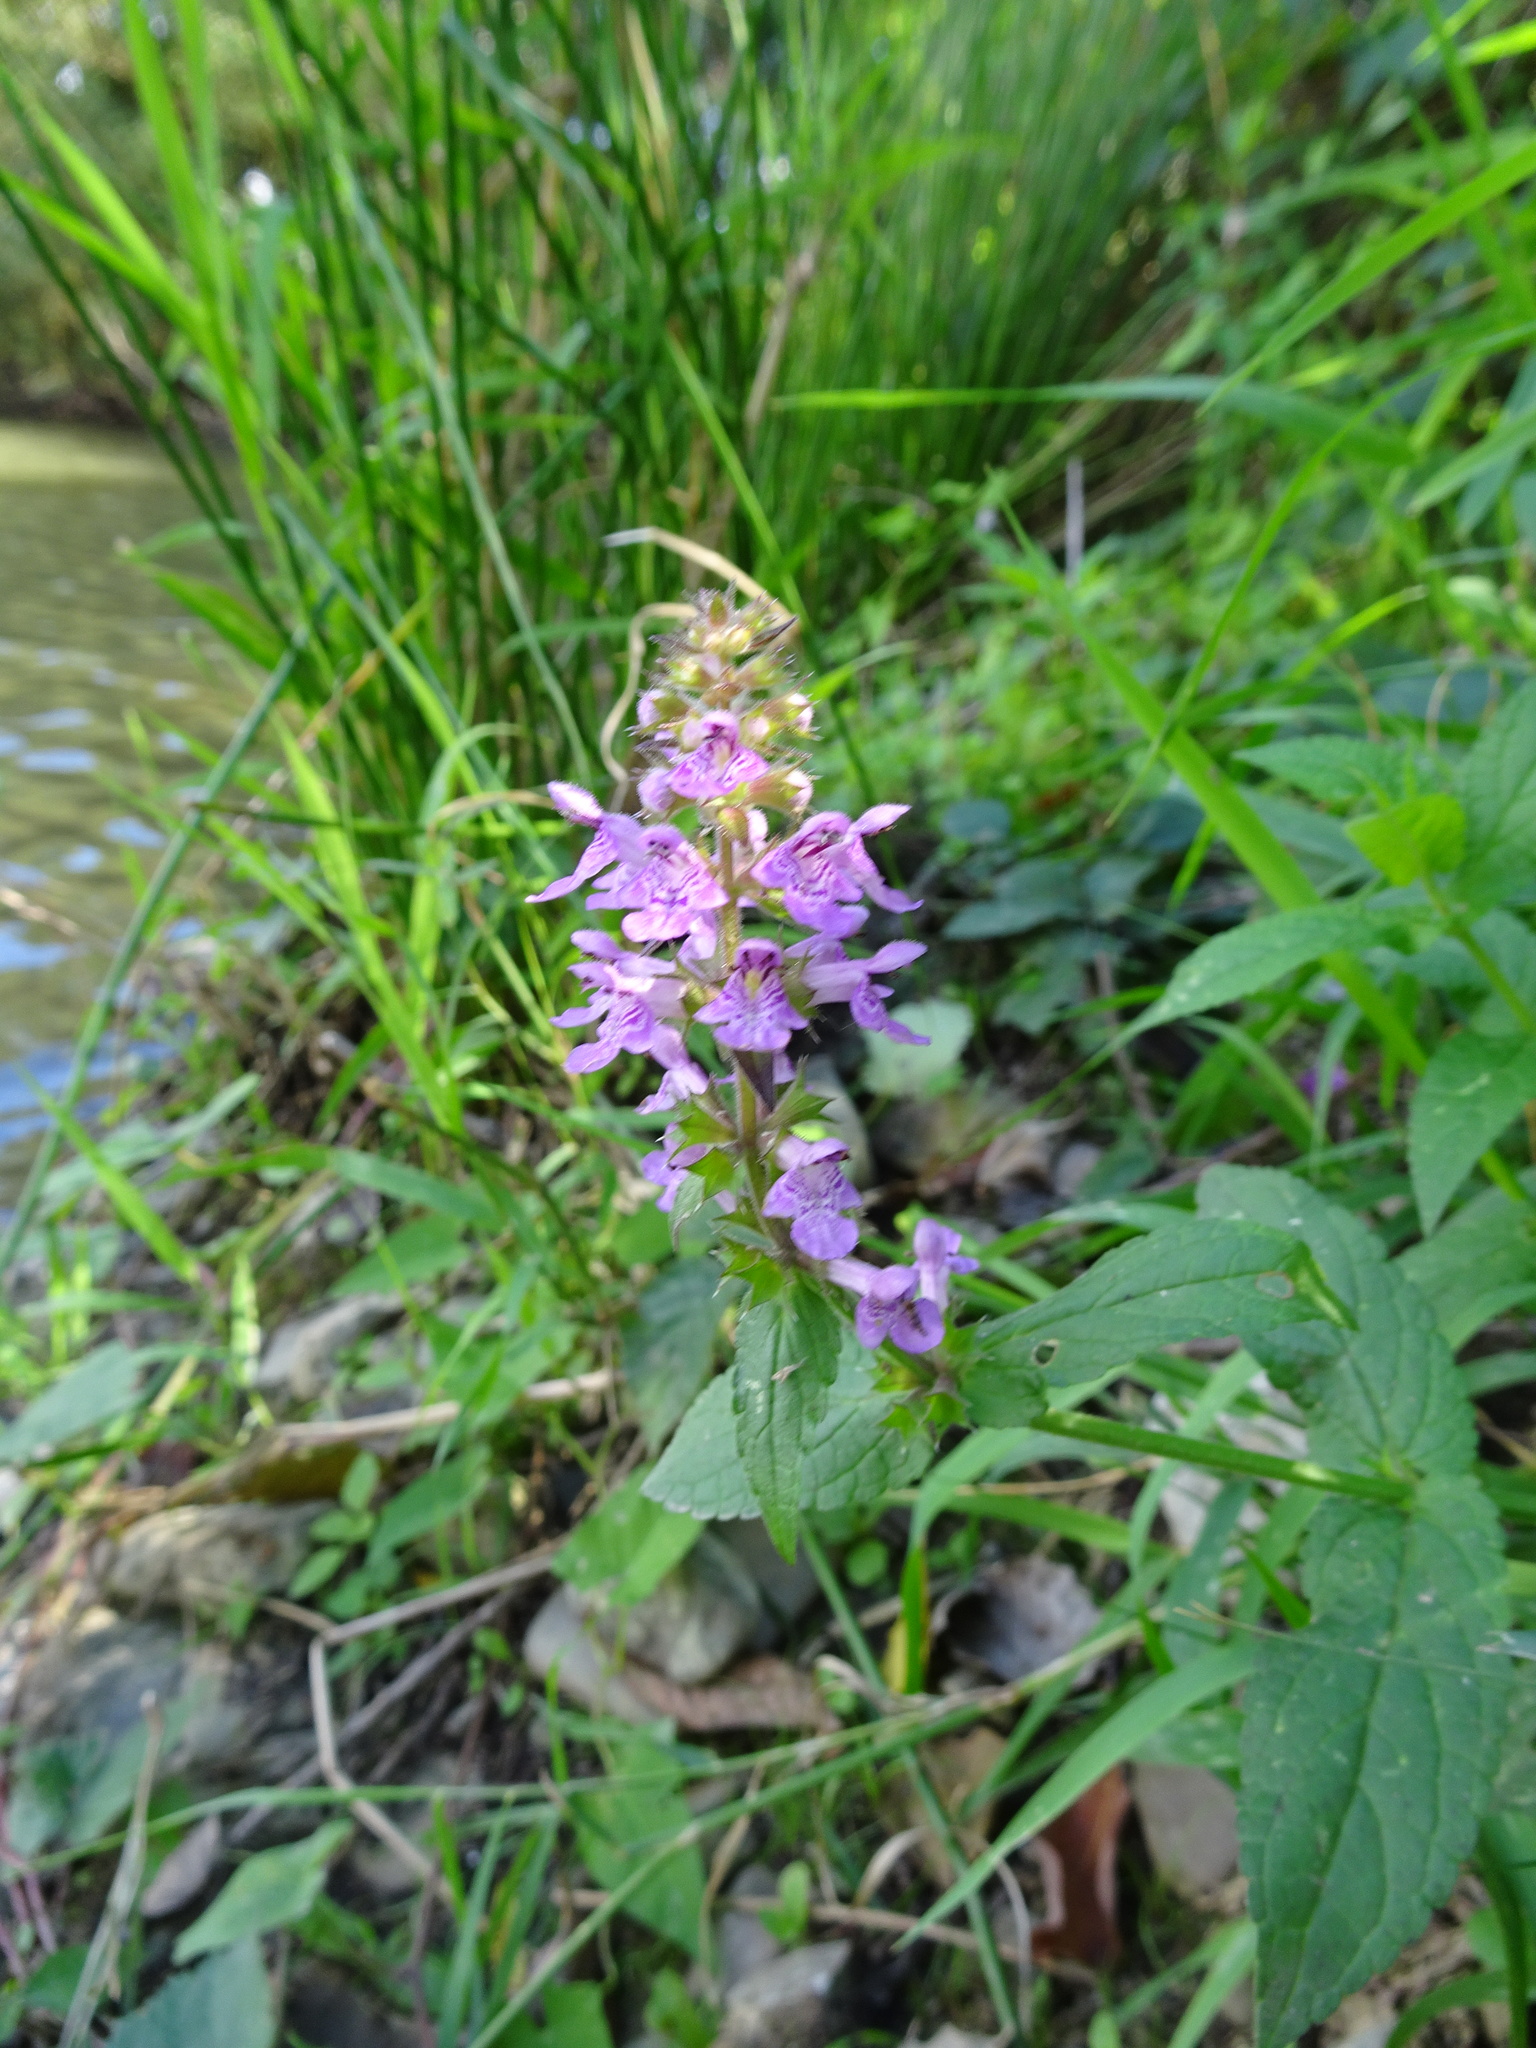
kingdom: Plantae
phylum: Tracheophyta
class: Magnoliopsida
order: Lamiales
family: Lamiaceae
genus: Stachys
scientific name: Stachys palustris
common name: Marsh woundwort
